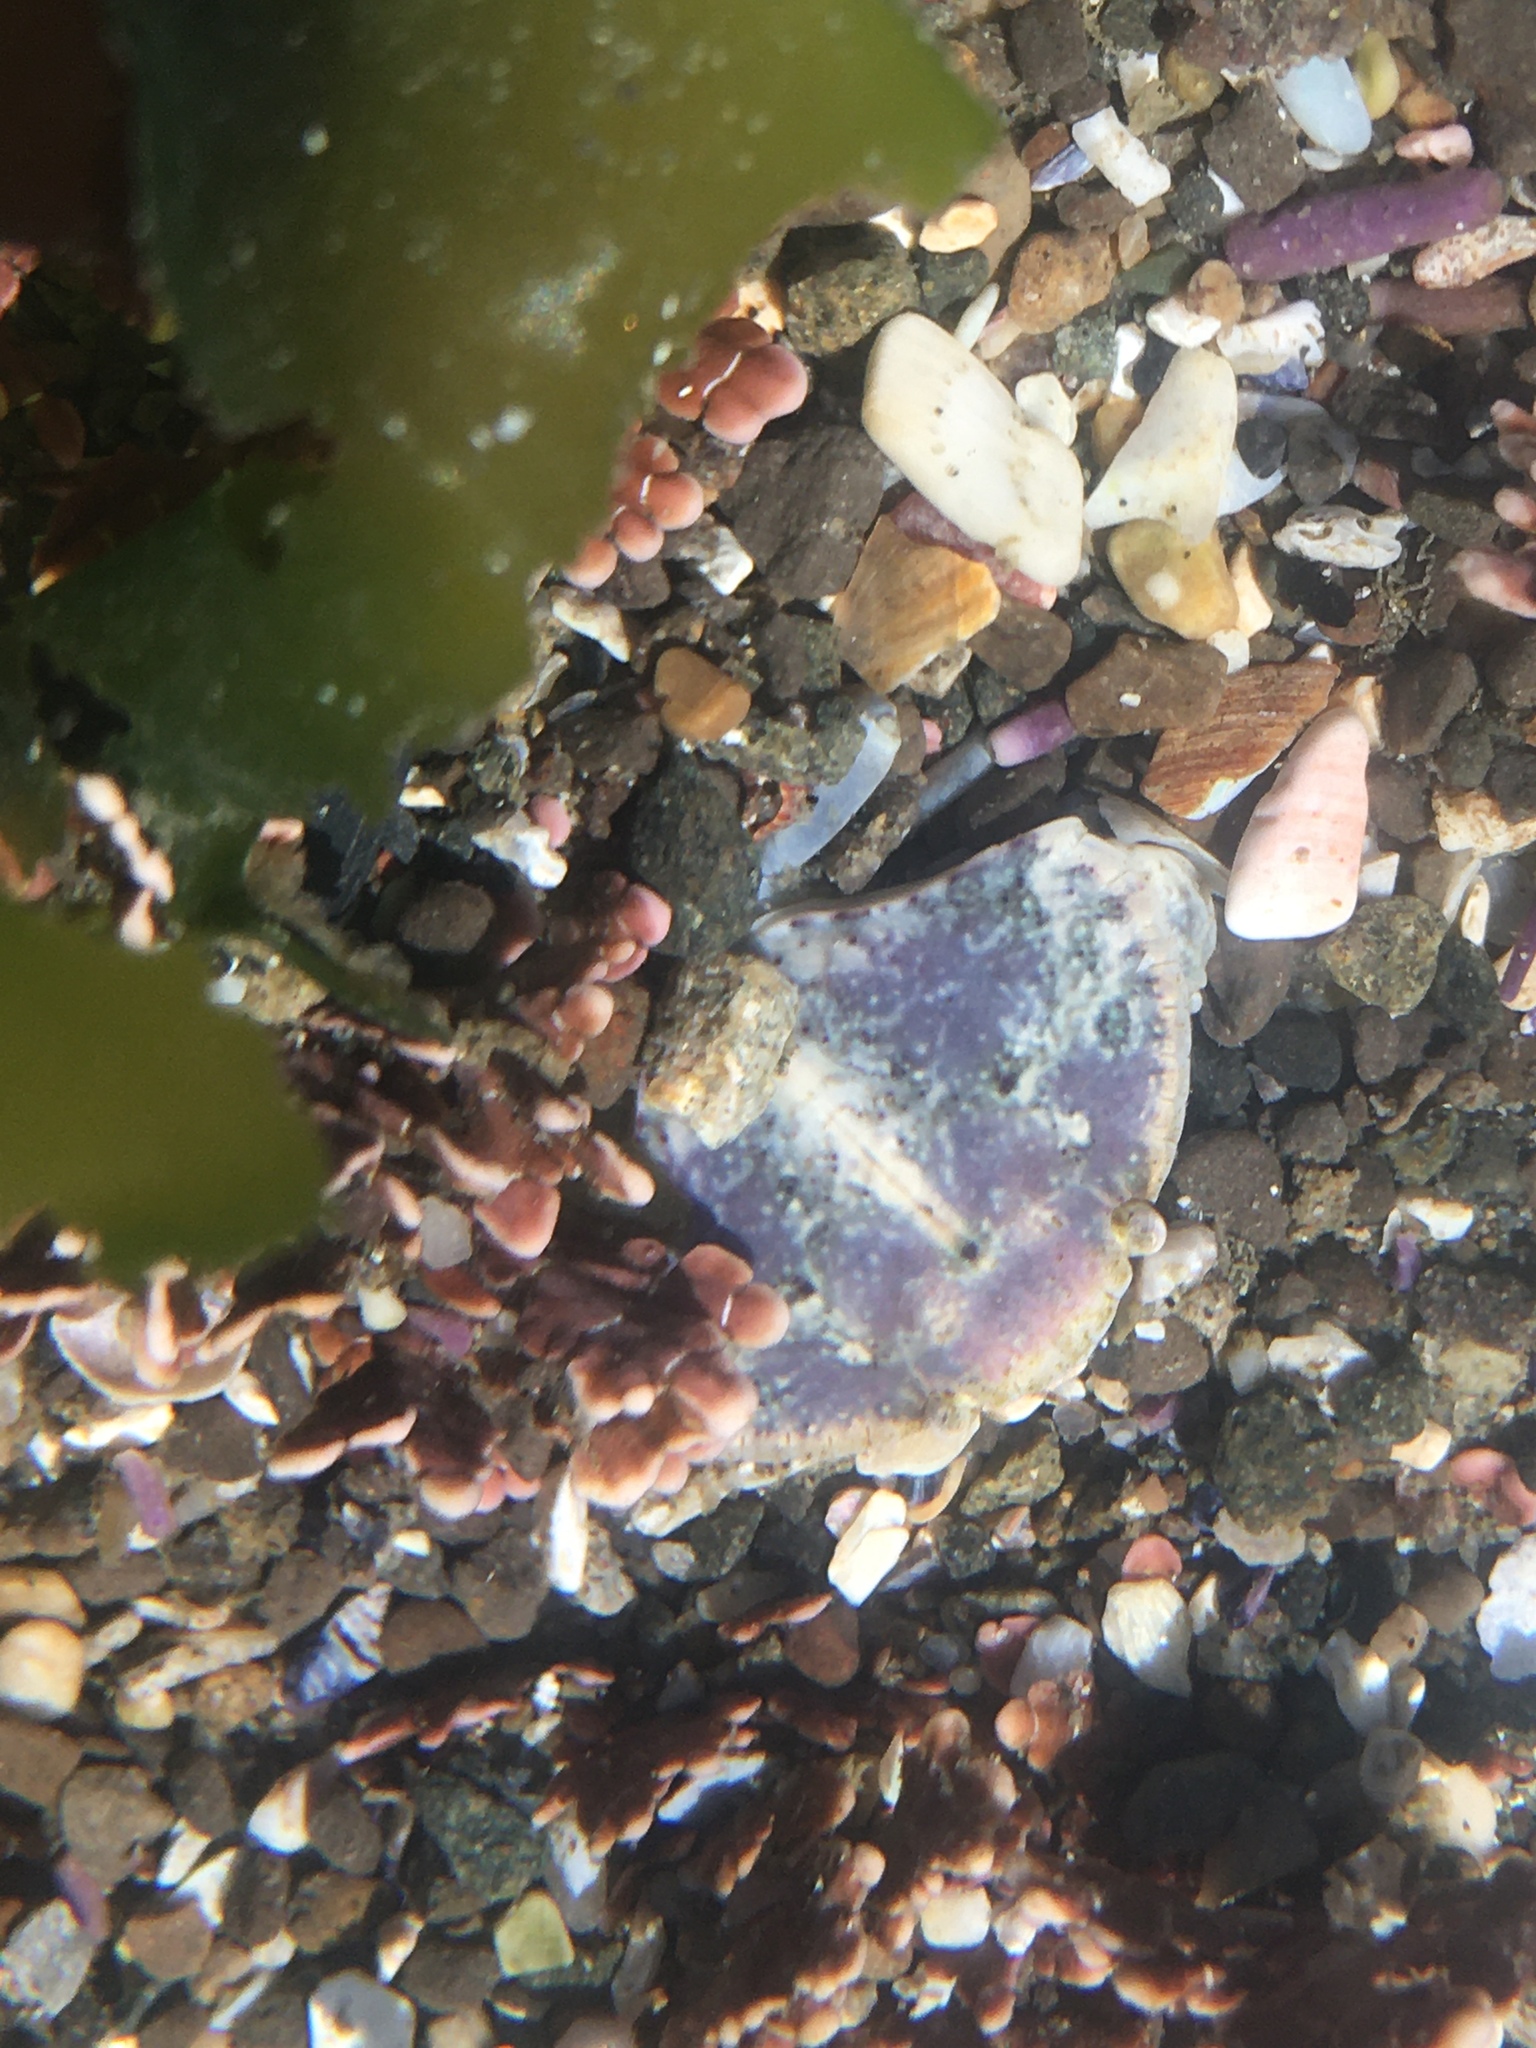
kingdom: Animalia
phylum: Arthropoda
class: Malacostraca
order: Decapoda
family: Cancridae
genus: Cancer
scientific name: Cancer productus
